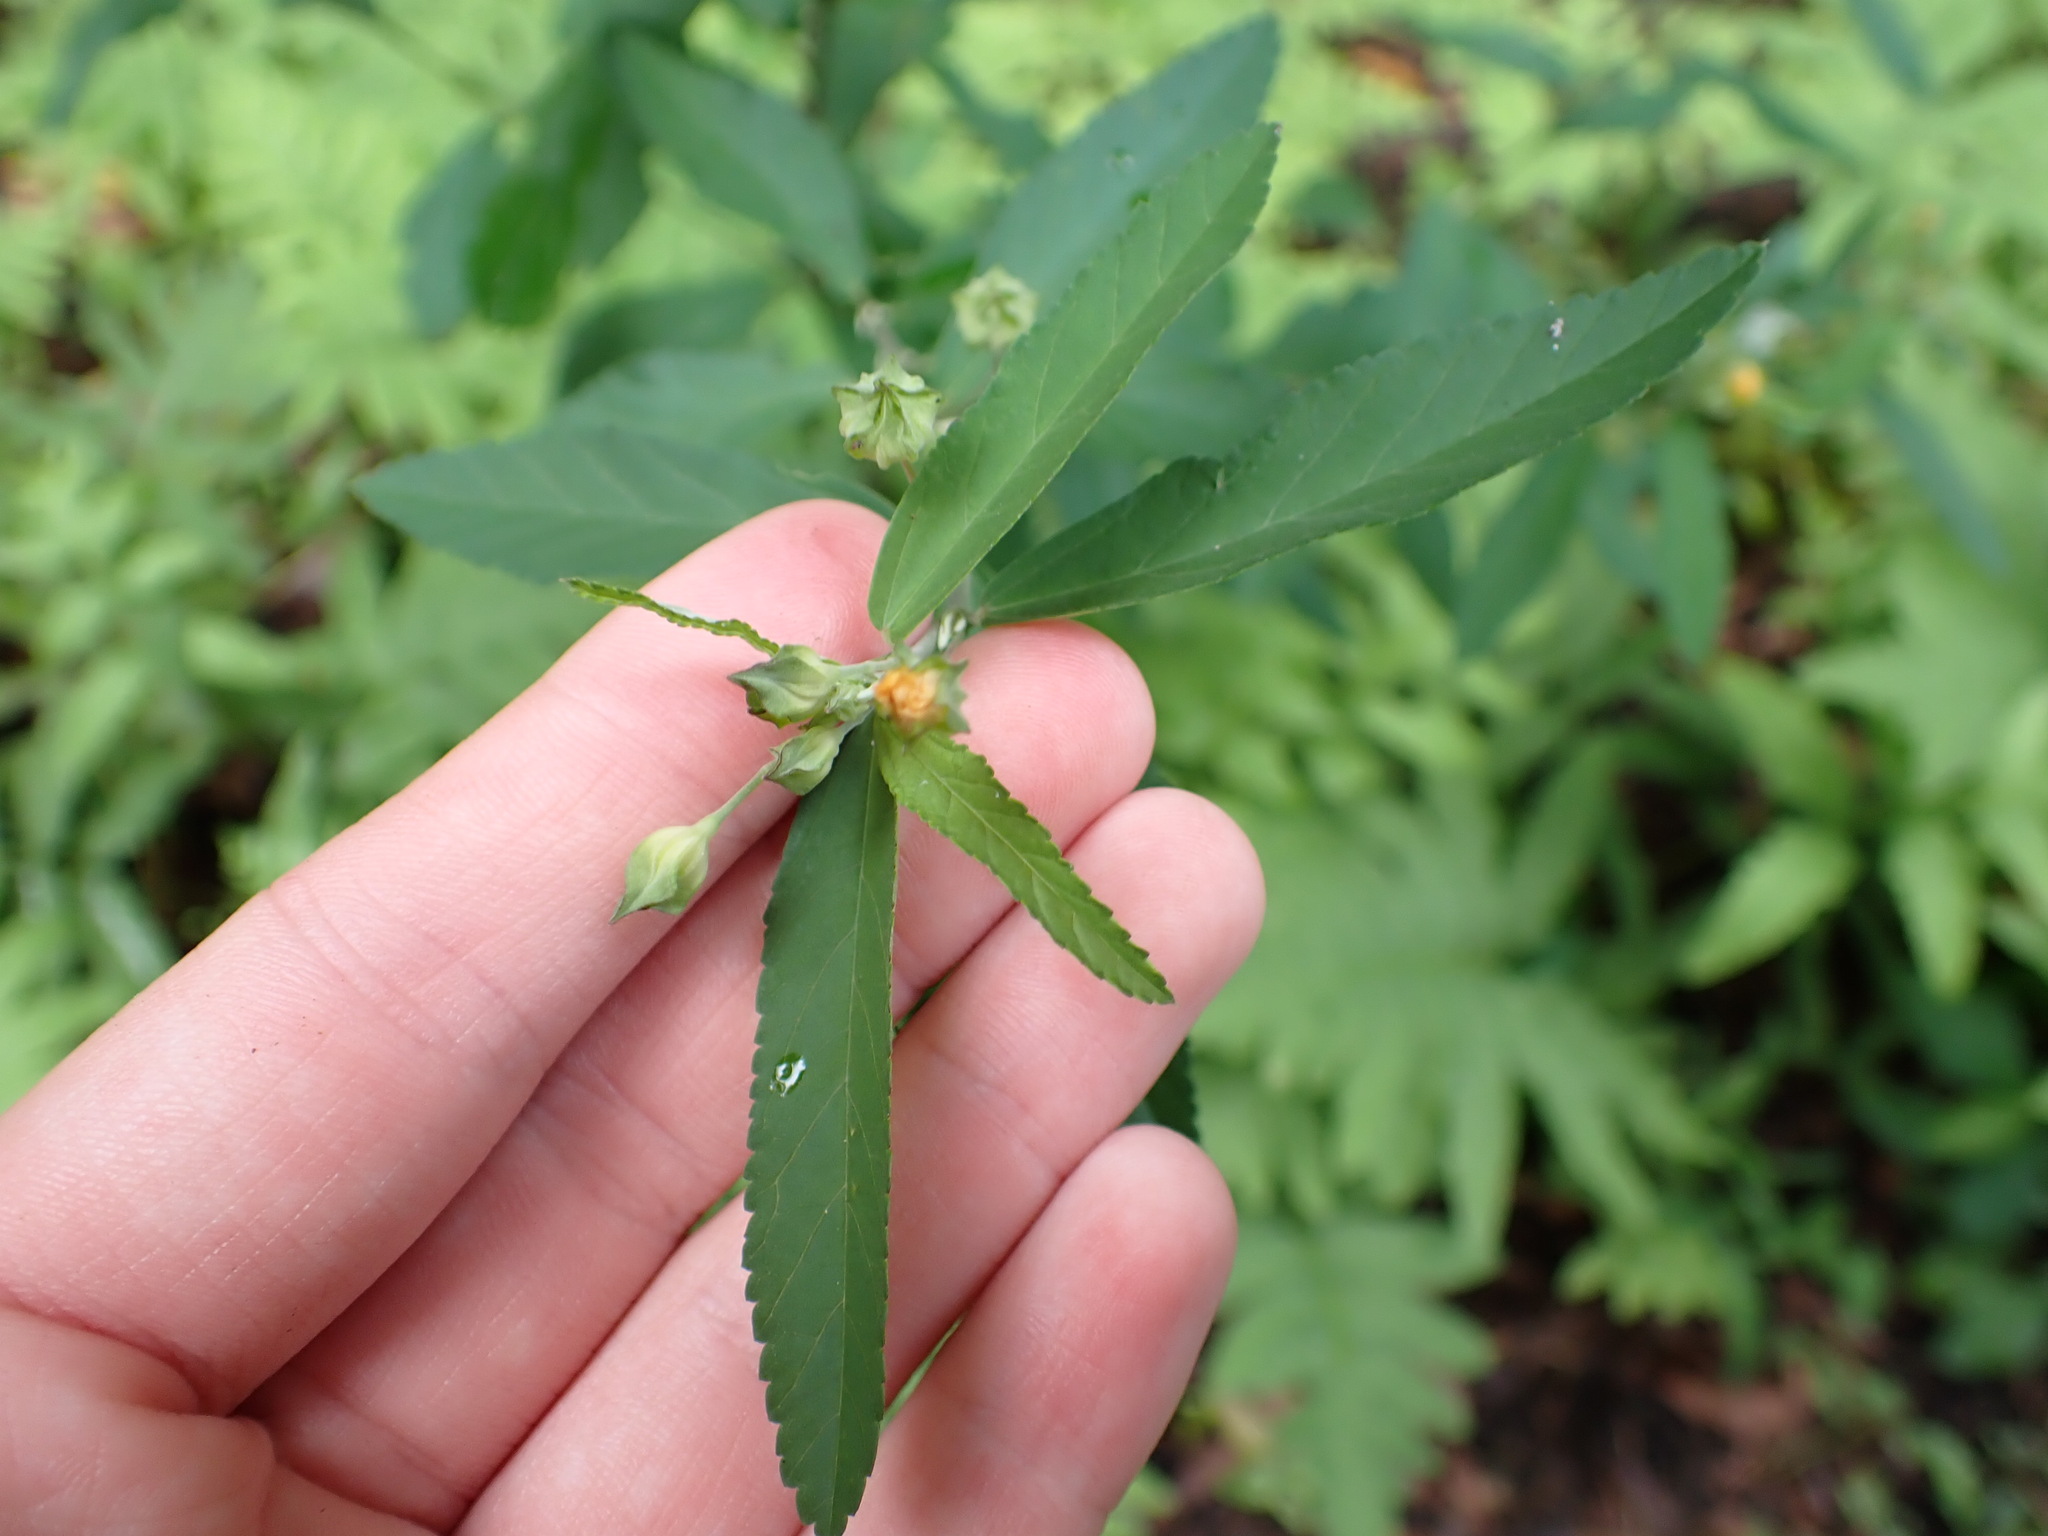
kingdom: Plantae
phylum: Tracheophyta
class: Magnoliopsida
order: Malvales
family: Malvaceae
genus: Sida
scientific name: Sida rhombifolia
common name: Queensland-hemp
